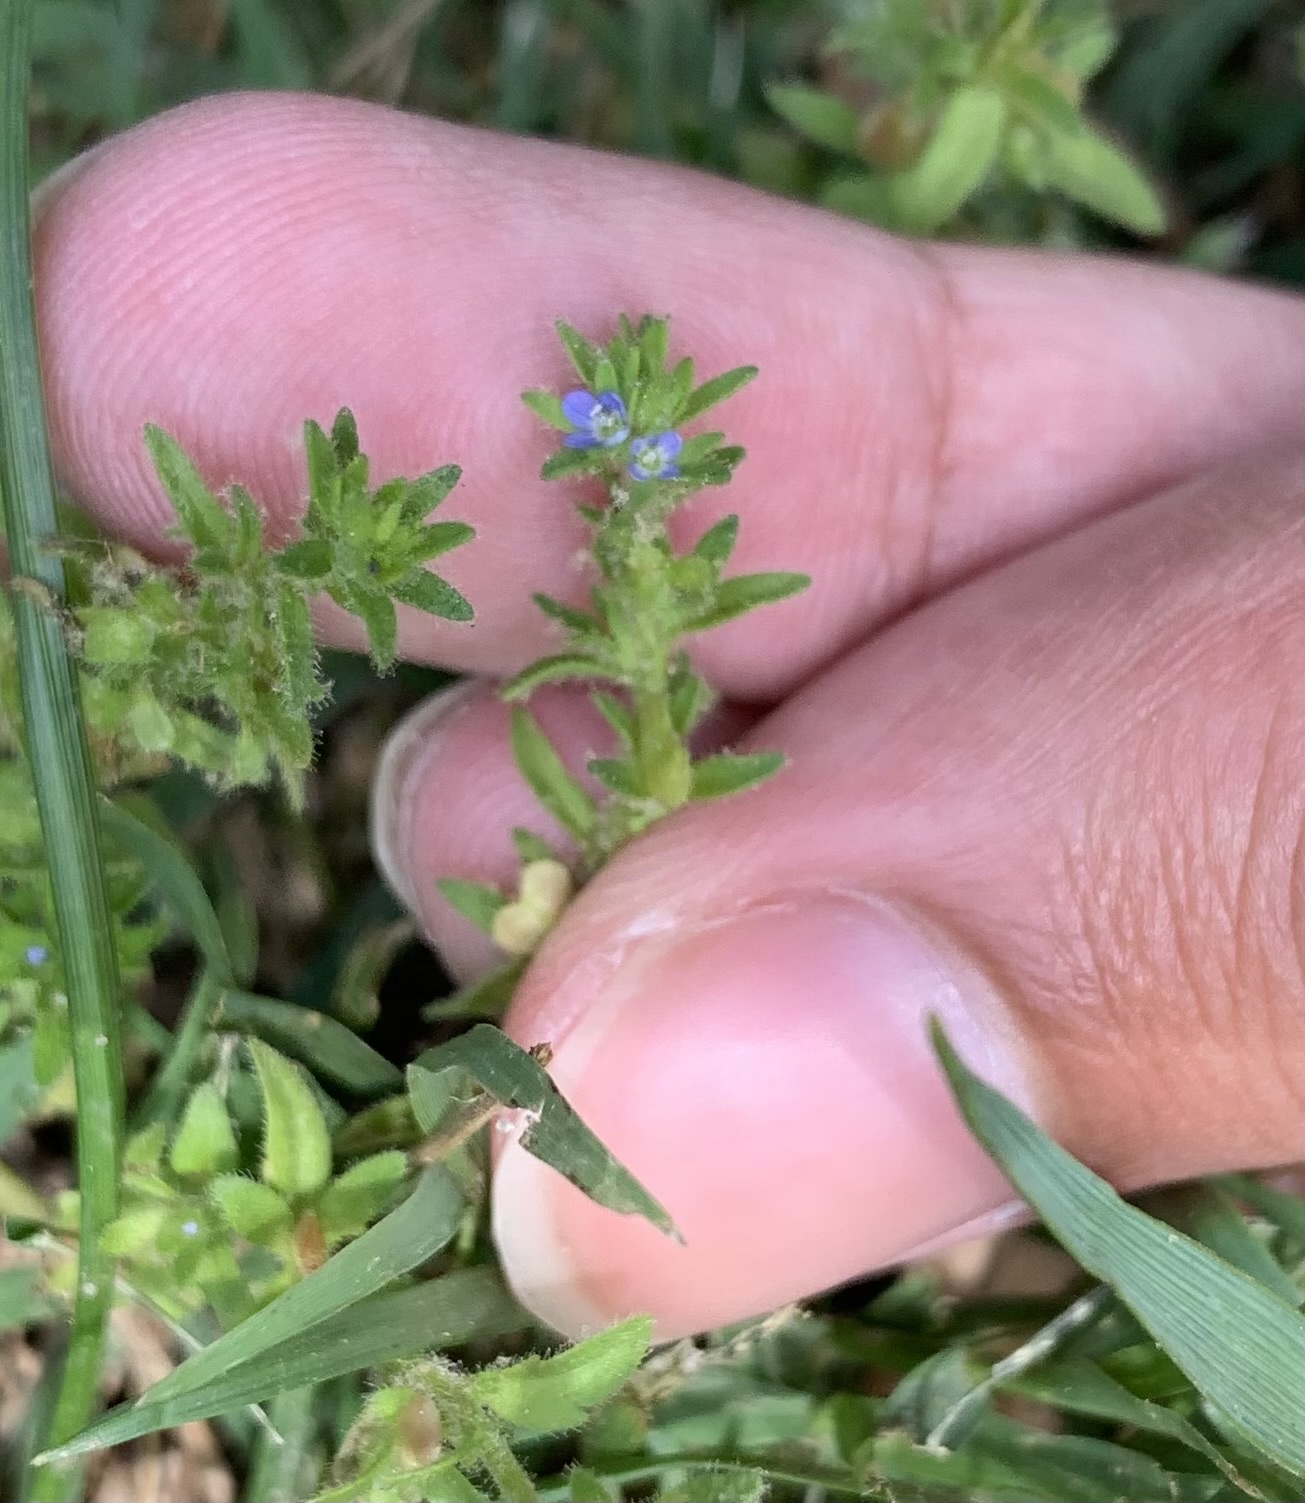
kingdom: Plantae
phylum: Tracheophyta
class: Magnoliopsida
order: Lamiales
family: Plantaginaceae
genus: Veronica
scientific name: Veronica arvensis
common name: Corn speedwell
